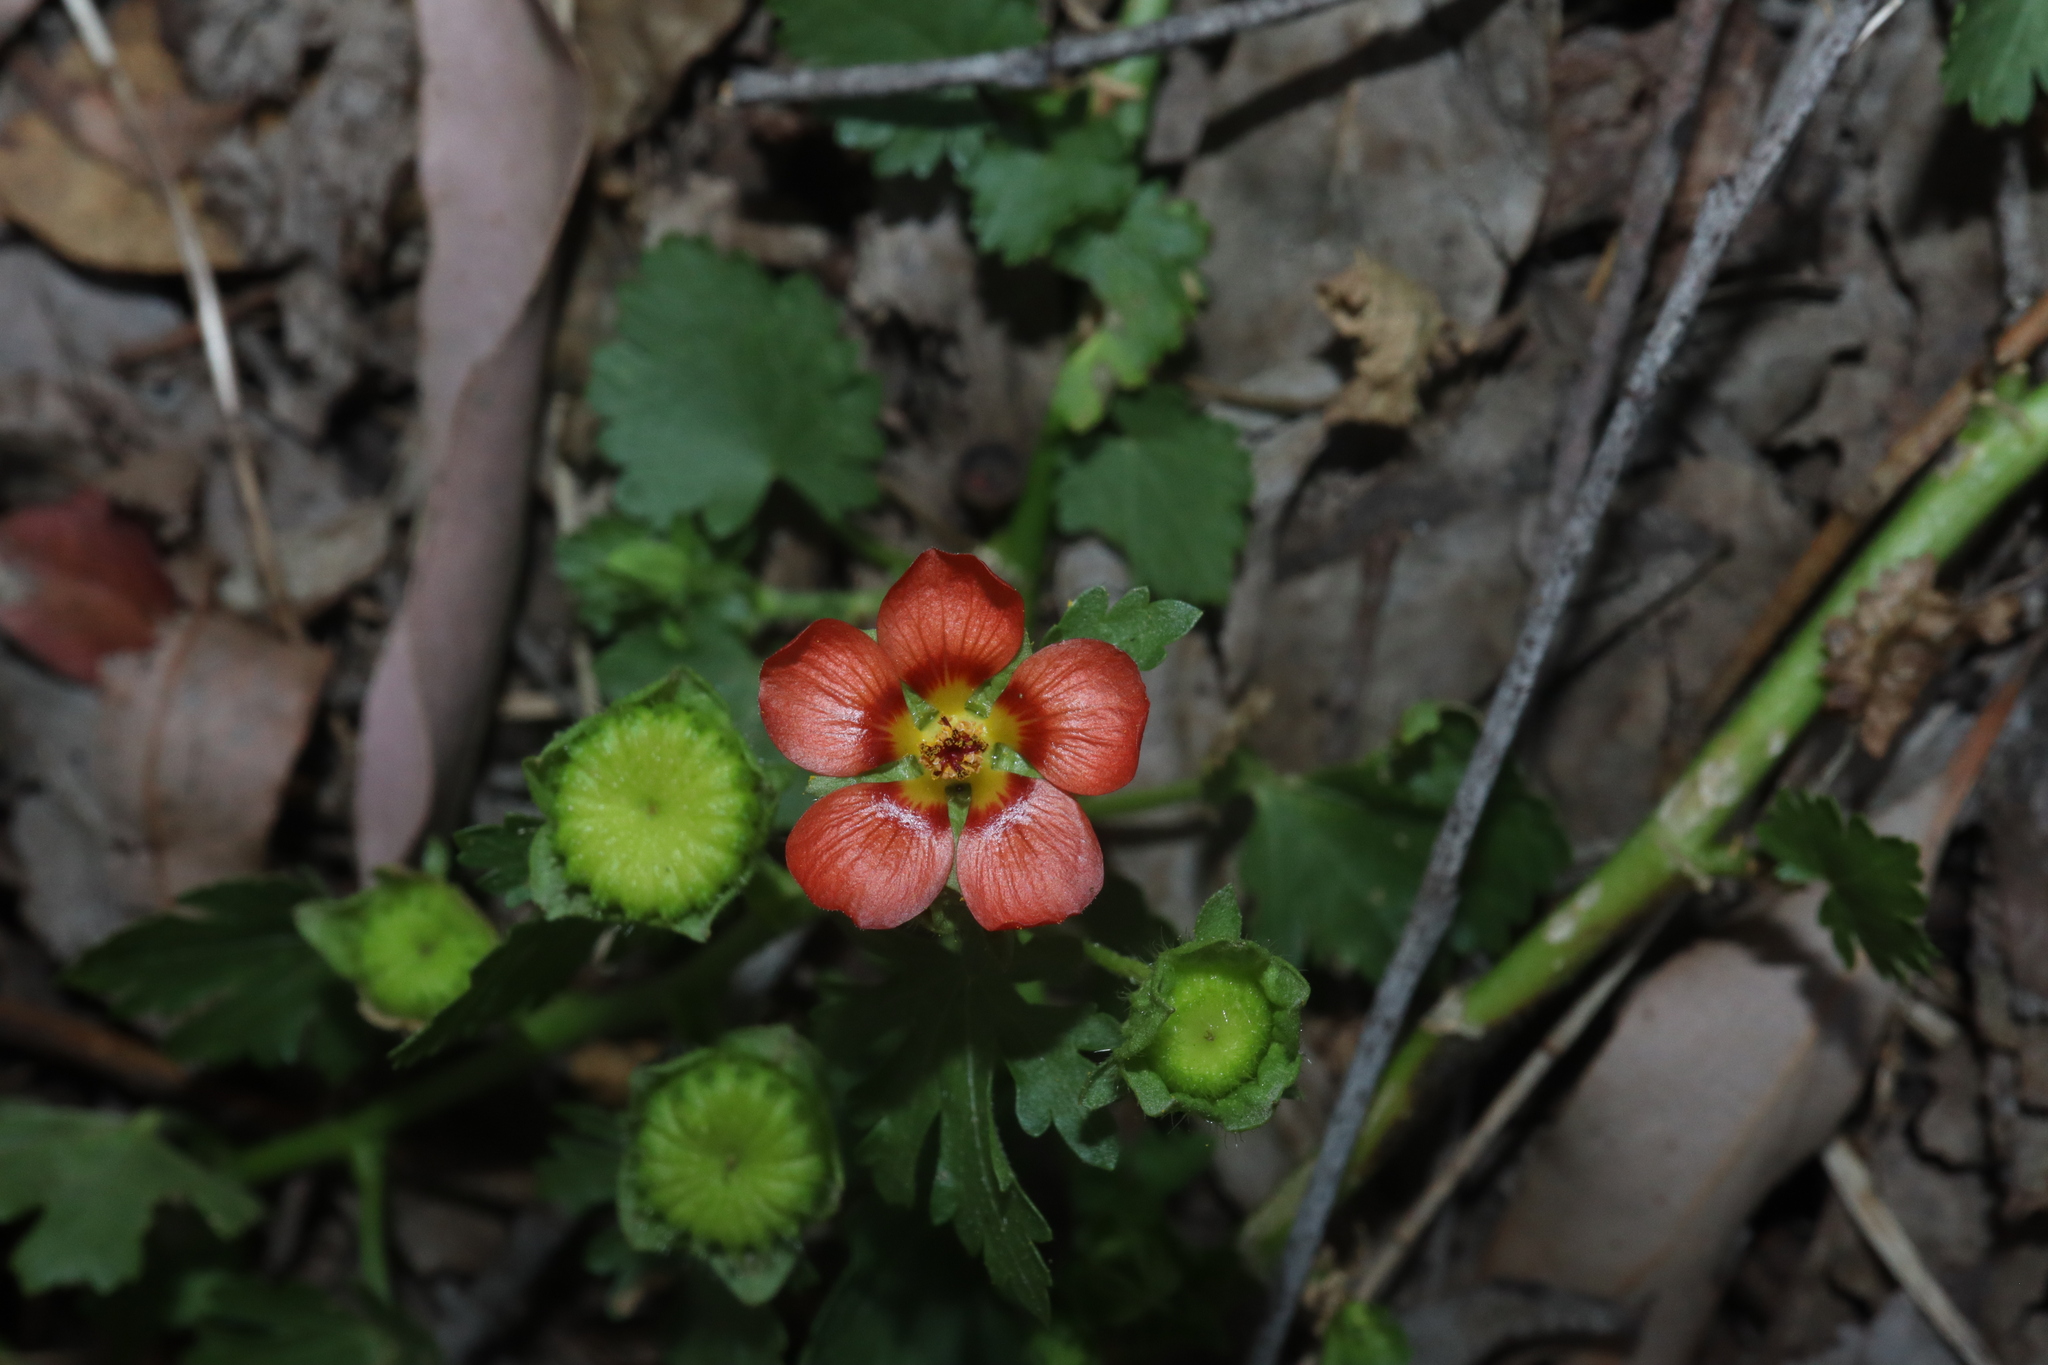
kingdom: Plantae
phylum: Tracheophyta
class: Magnoliopsida
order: Malvales
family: Malvaceae
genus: Modiola
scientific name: Modiola caroliniana
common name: Carolina bristlemallow
